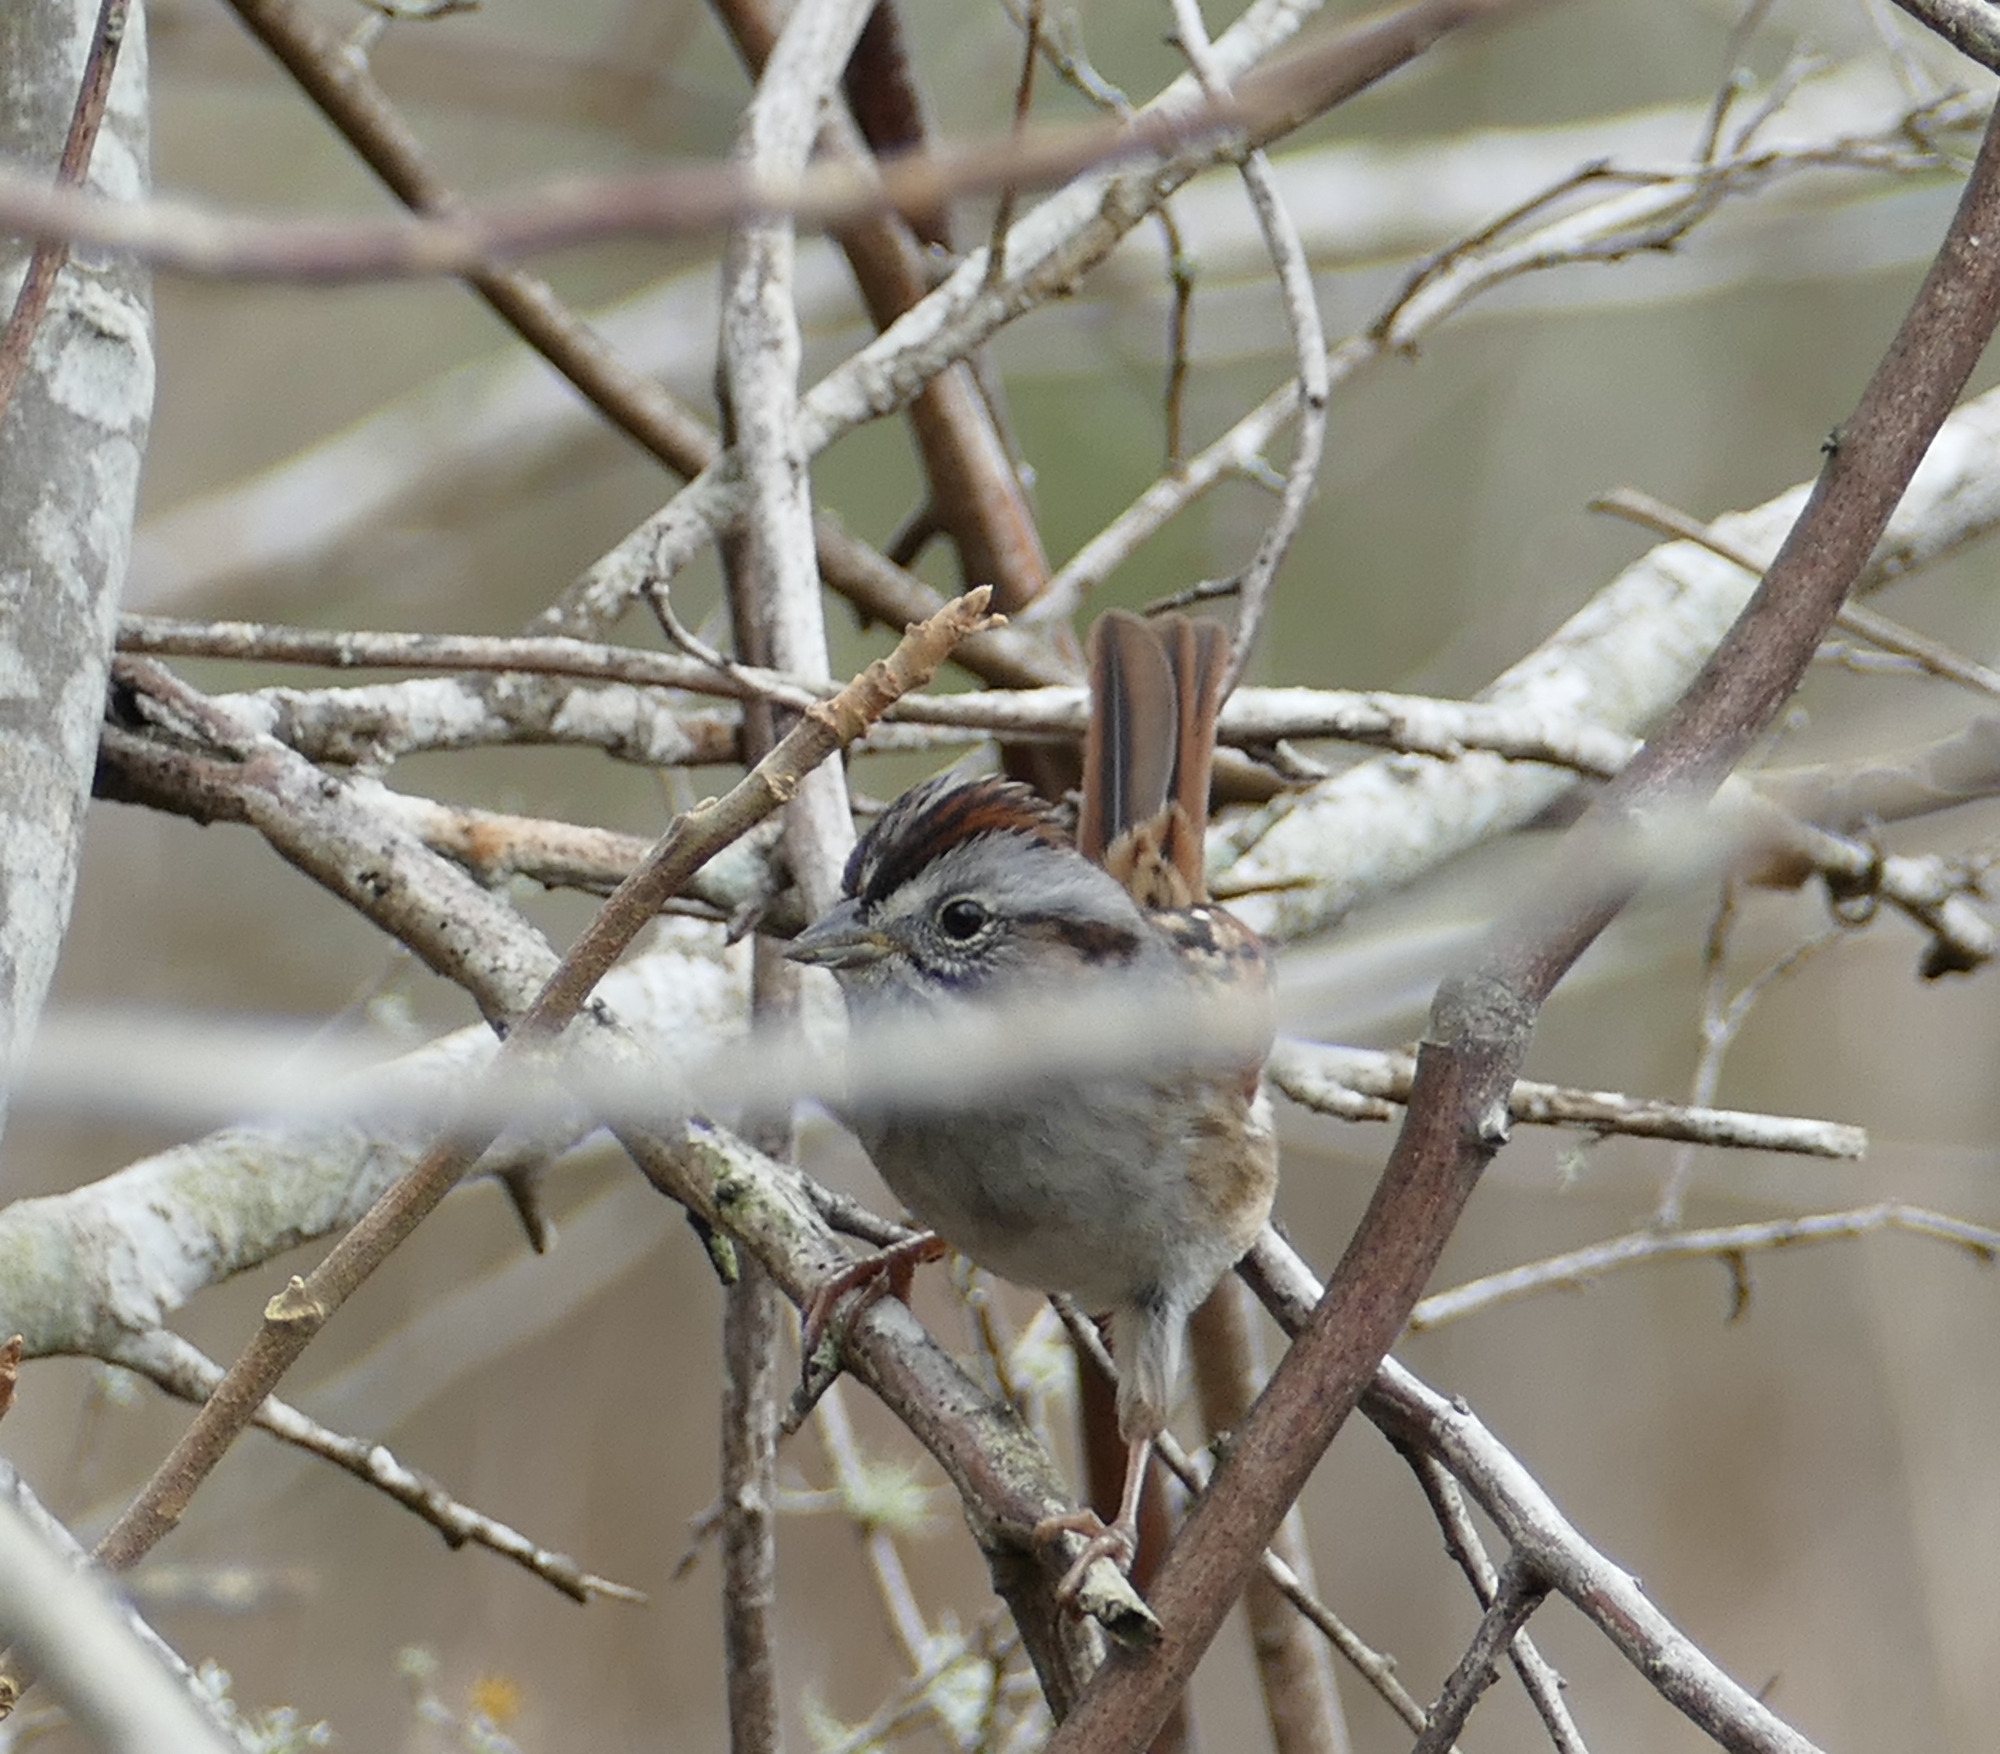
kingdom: Animalia
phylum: Chordata
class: Aves
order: Passeriformes
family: Passerellidae
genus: Melospiza
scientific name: Melospiza georgiana
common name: Swamp sparrow
